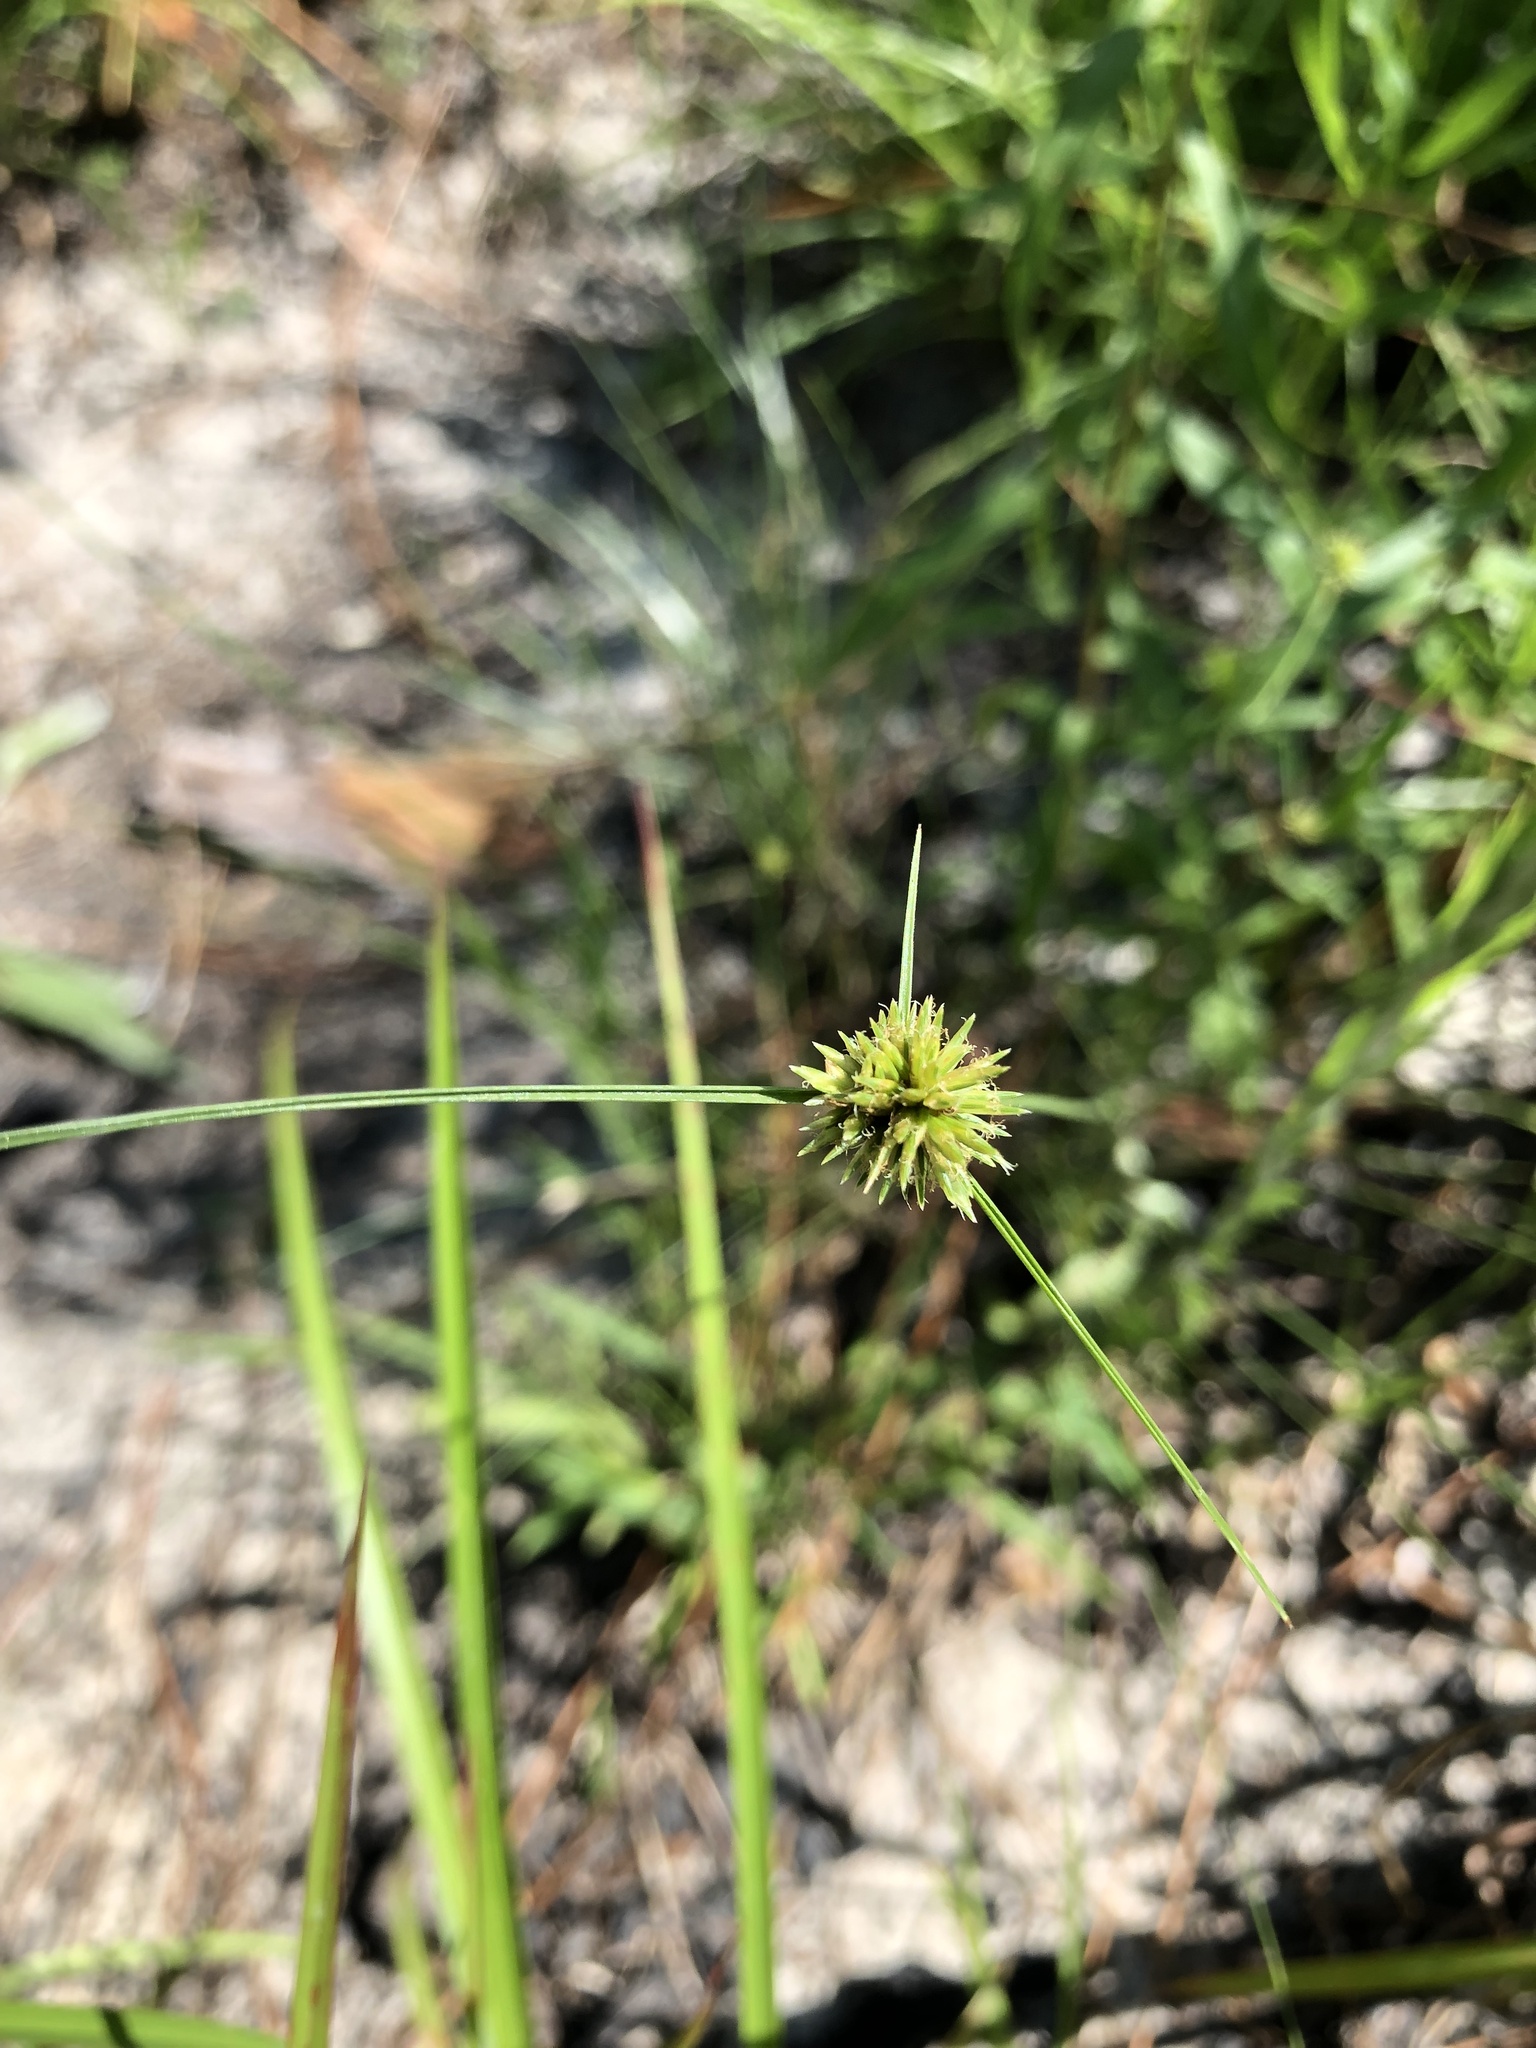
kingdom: Plantae
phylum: Tracheophyta
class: Liliopsida
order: Poales
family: Cyperaceae
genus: Cyperus
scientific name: Cyperus filiculmis
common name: Slender sand sedge
